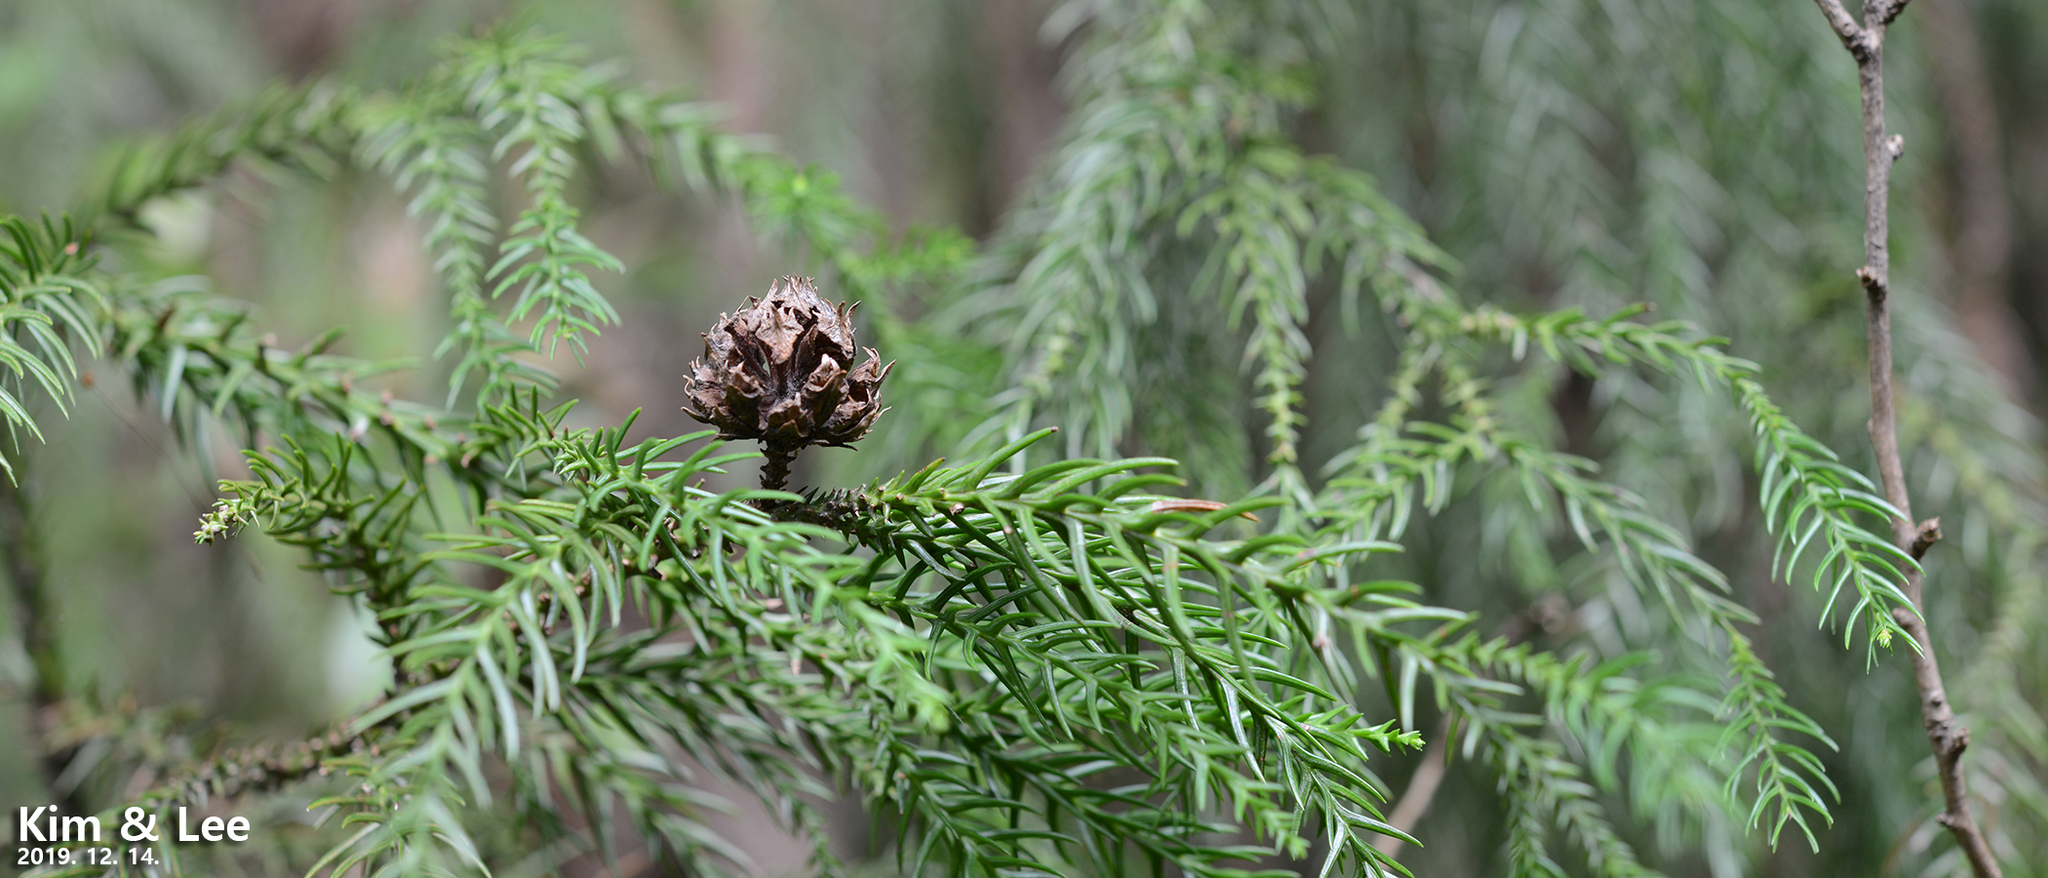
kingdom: Plantae
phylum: Tracheophyta
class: Pinopsida
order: Pinales
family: Cupressaceae
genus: Cryptomeria
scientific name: Cryptomeria japonica
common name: Japanese cedar
